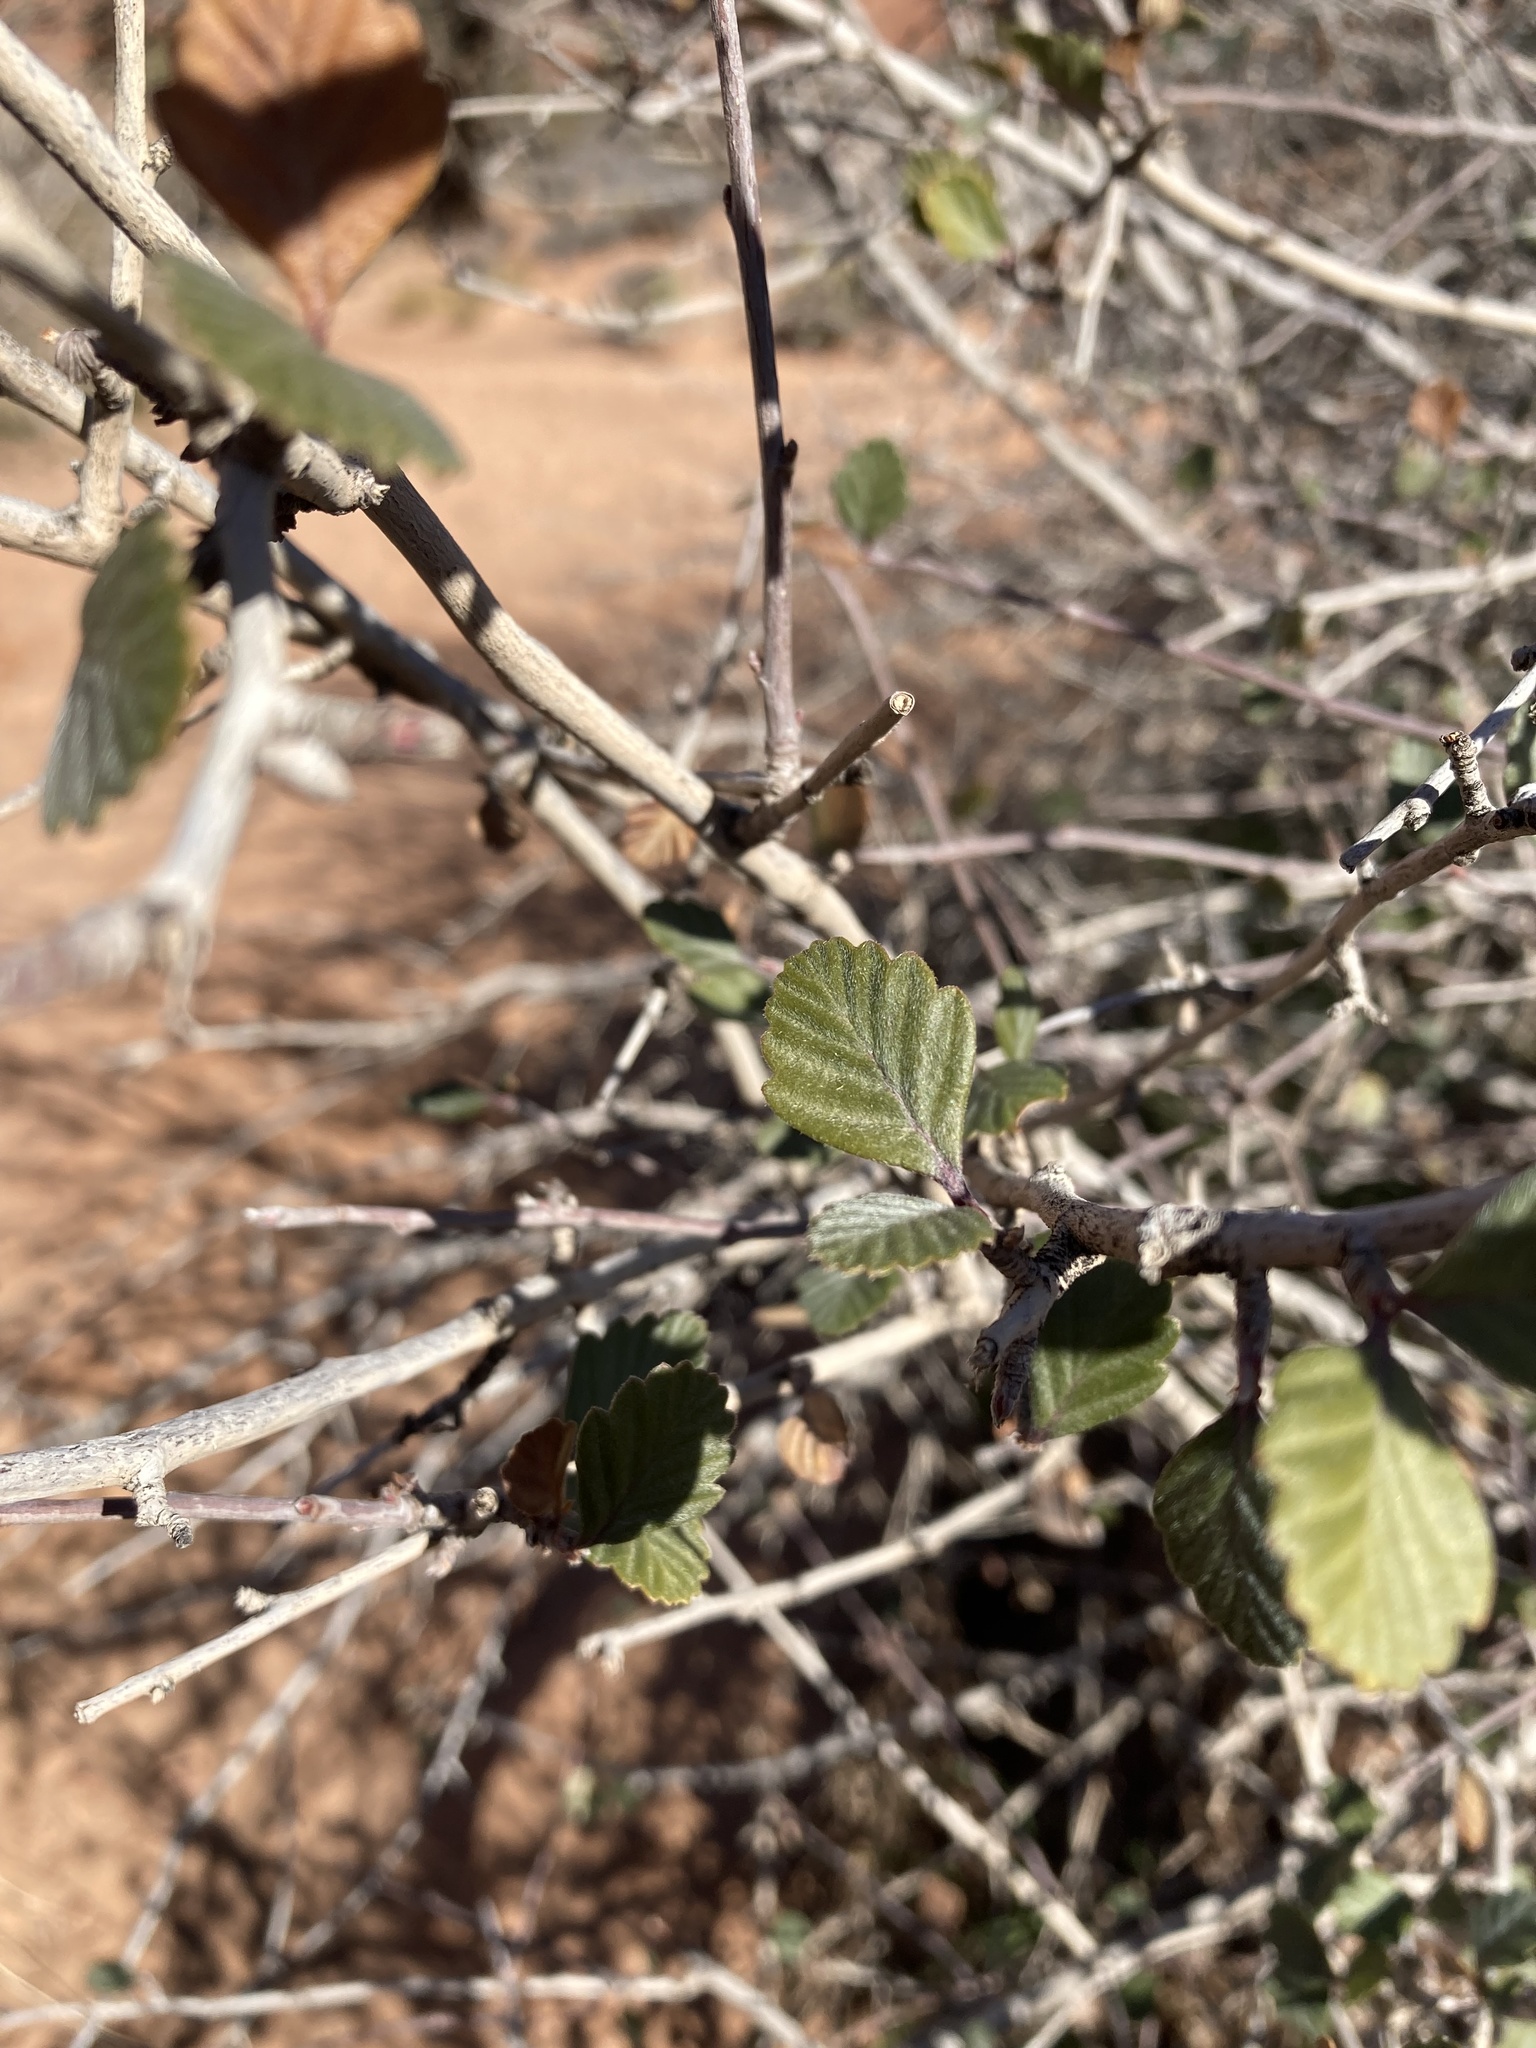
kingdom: Plantae
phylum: Tracheophyta
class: Magnoliopsida
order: Rosales
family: Rosaceae
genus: Cercocarpus
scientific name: Cercocarpus montanus
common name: Alder-leaf cercocarpus
